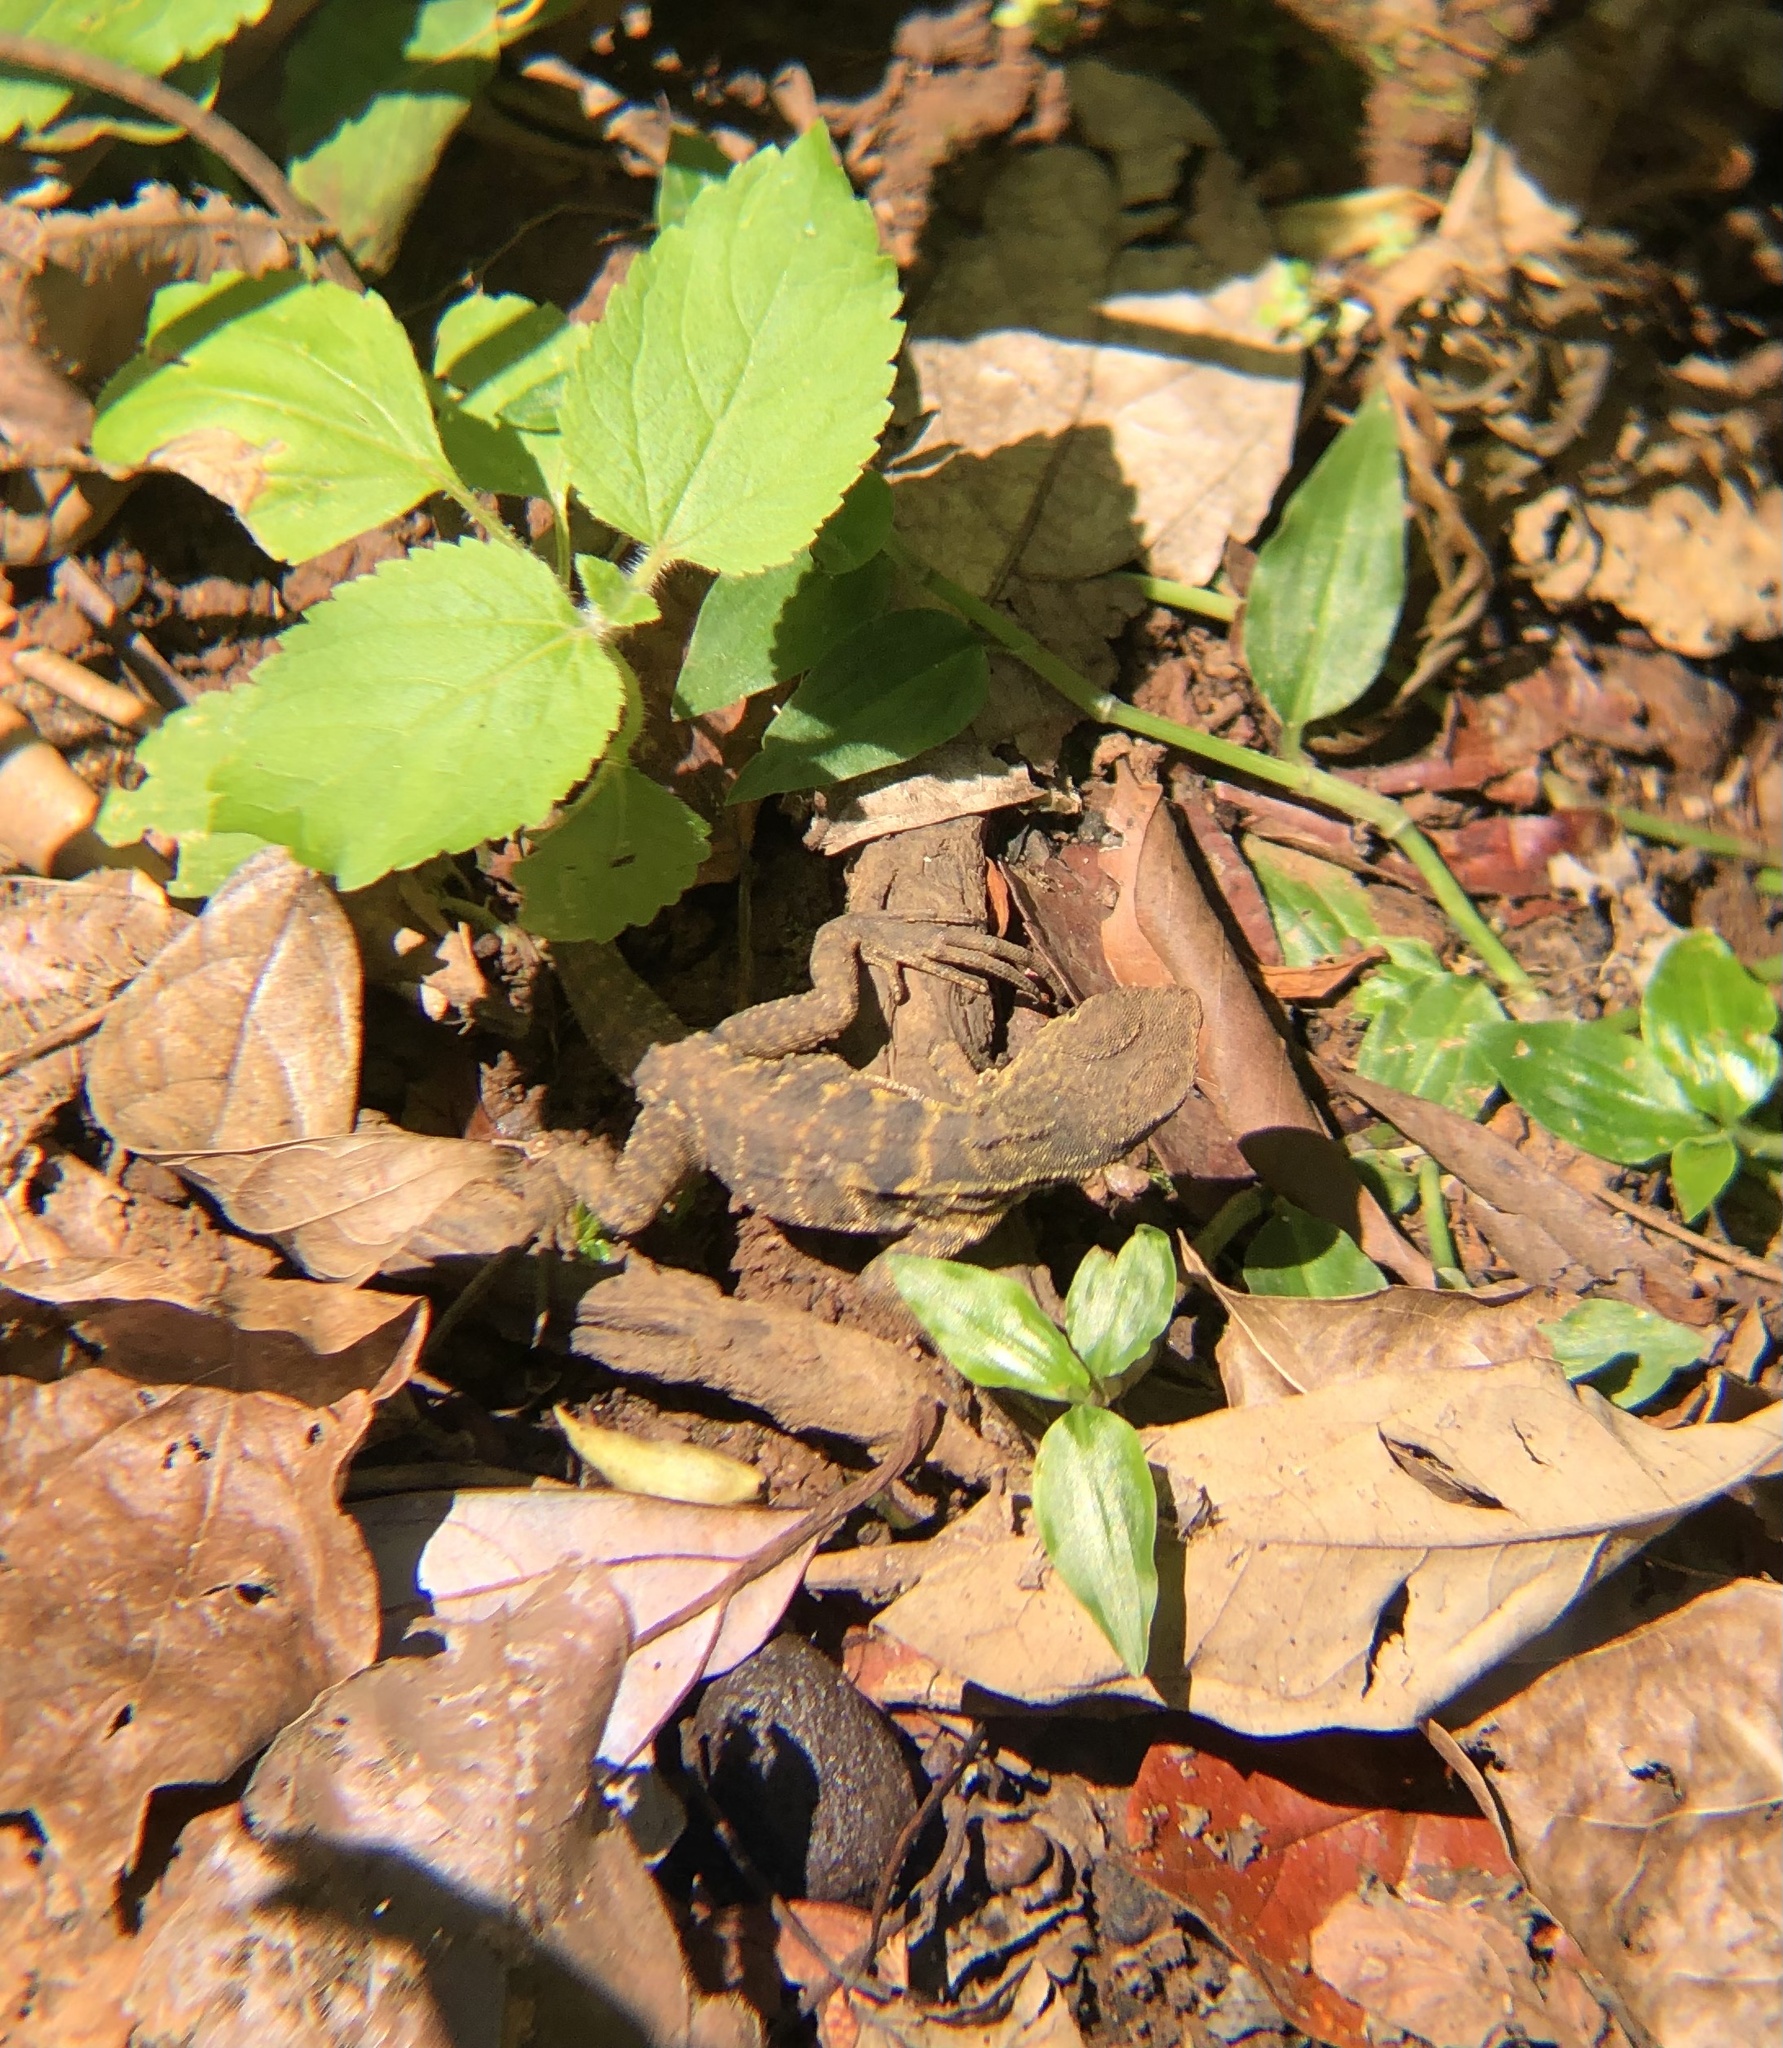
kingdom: Animalia
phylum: Chordata
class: Squamata
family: Agamidae
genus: Intellagama
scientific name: Intellagama lesueurii
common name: Eastern water dragon
